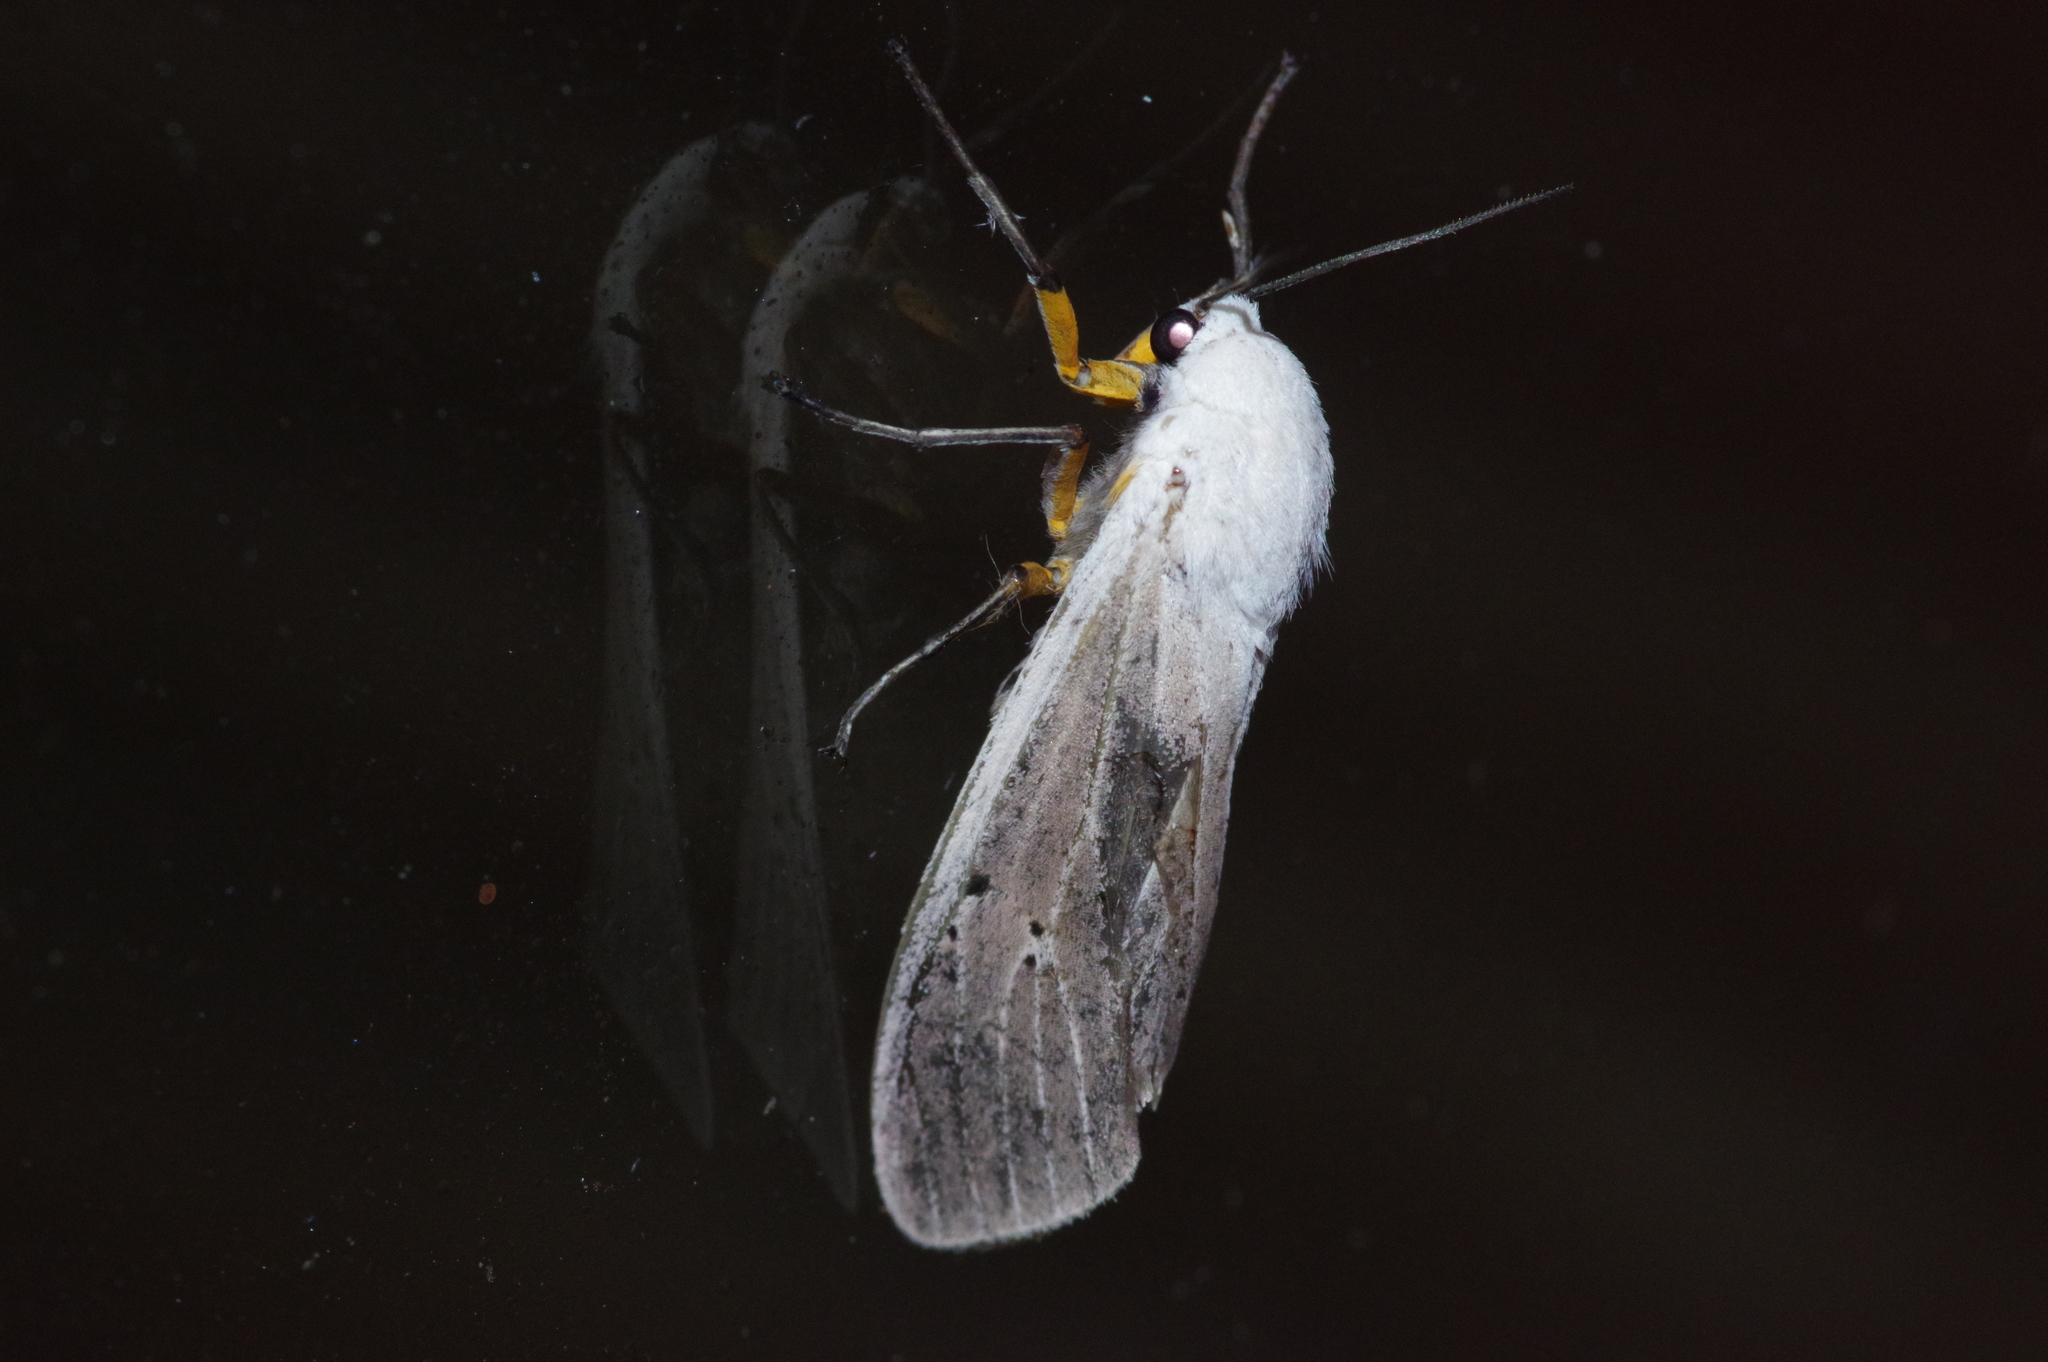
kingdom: Animalia
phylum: Arthropoda
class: Insecta
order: Lepidoptera
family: Erebidae
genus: Creatonotos
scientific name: Creatonotos transiens
